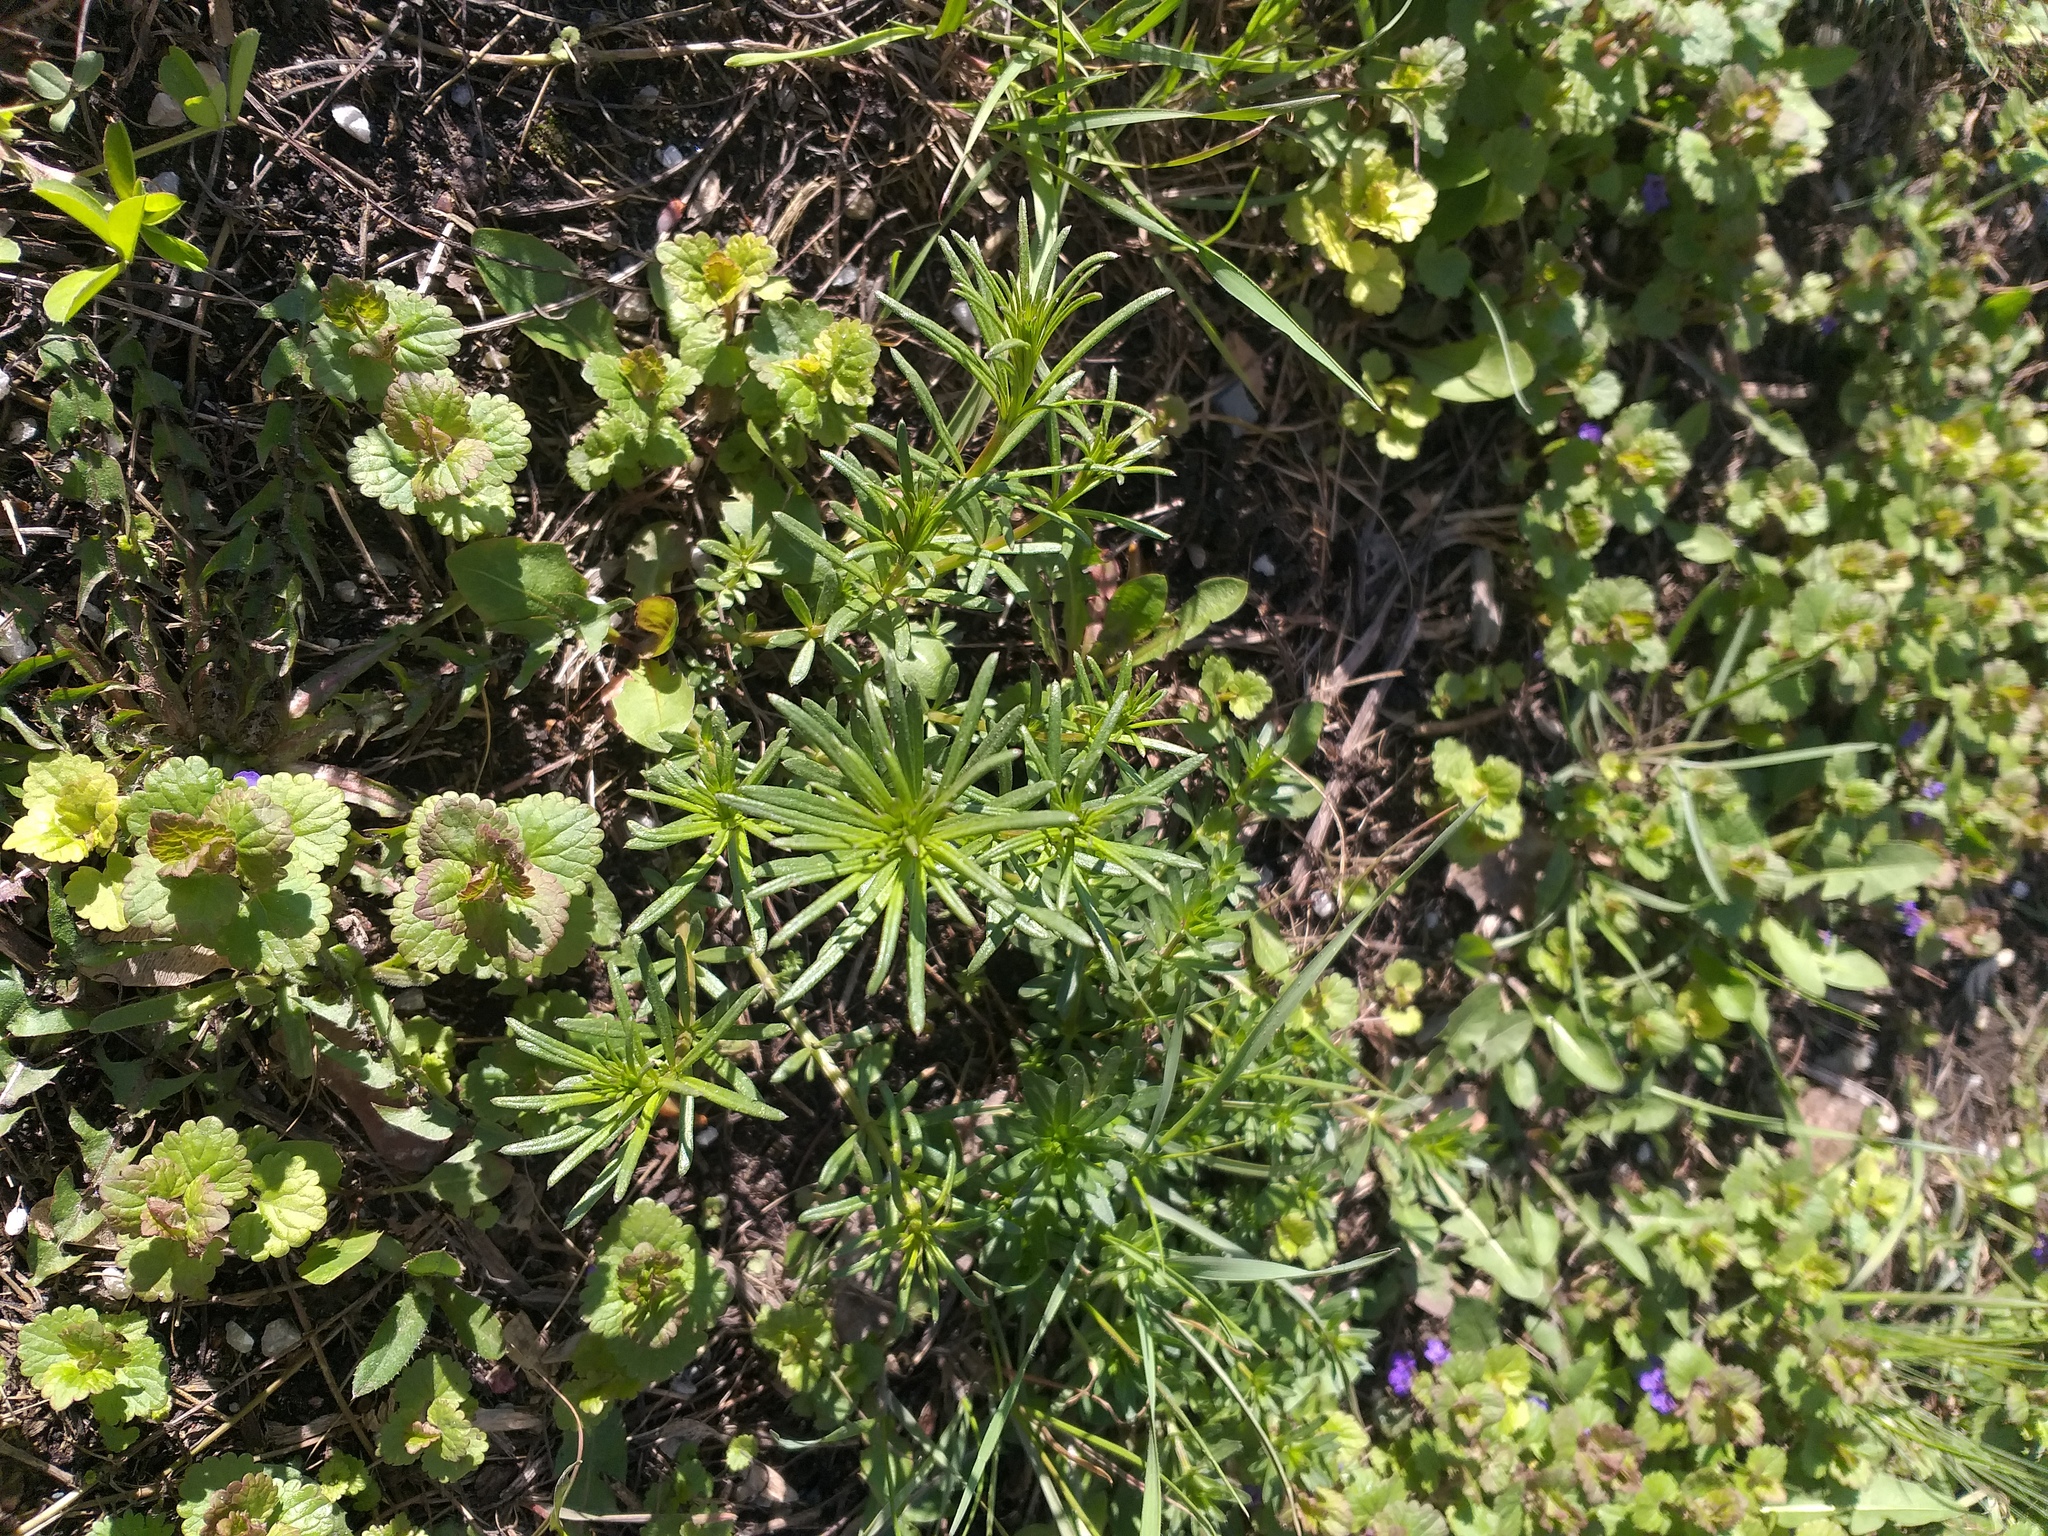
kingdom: Plantae
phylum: Tracheophyta
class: Magnoliopsida
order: Gentianales
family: Rubiaceae
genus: Galium
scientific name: Galium verum
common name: Lady's bedstraw
